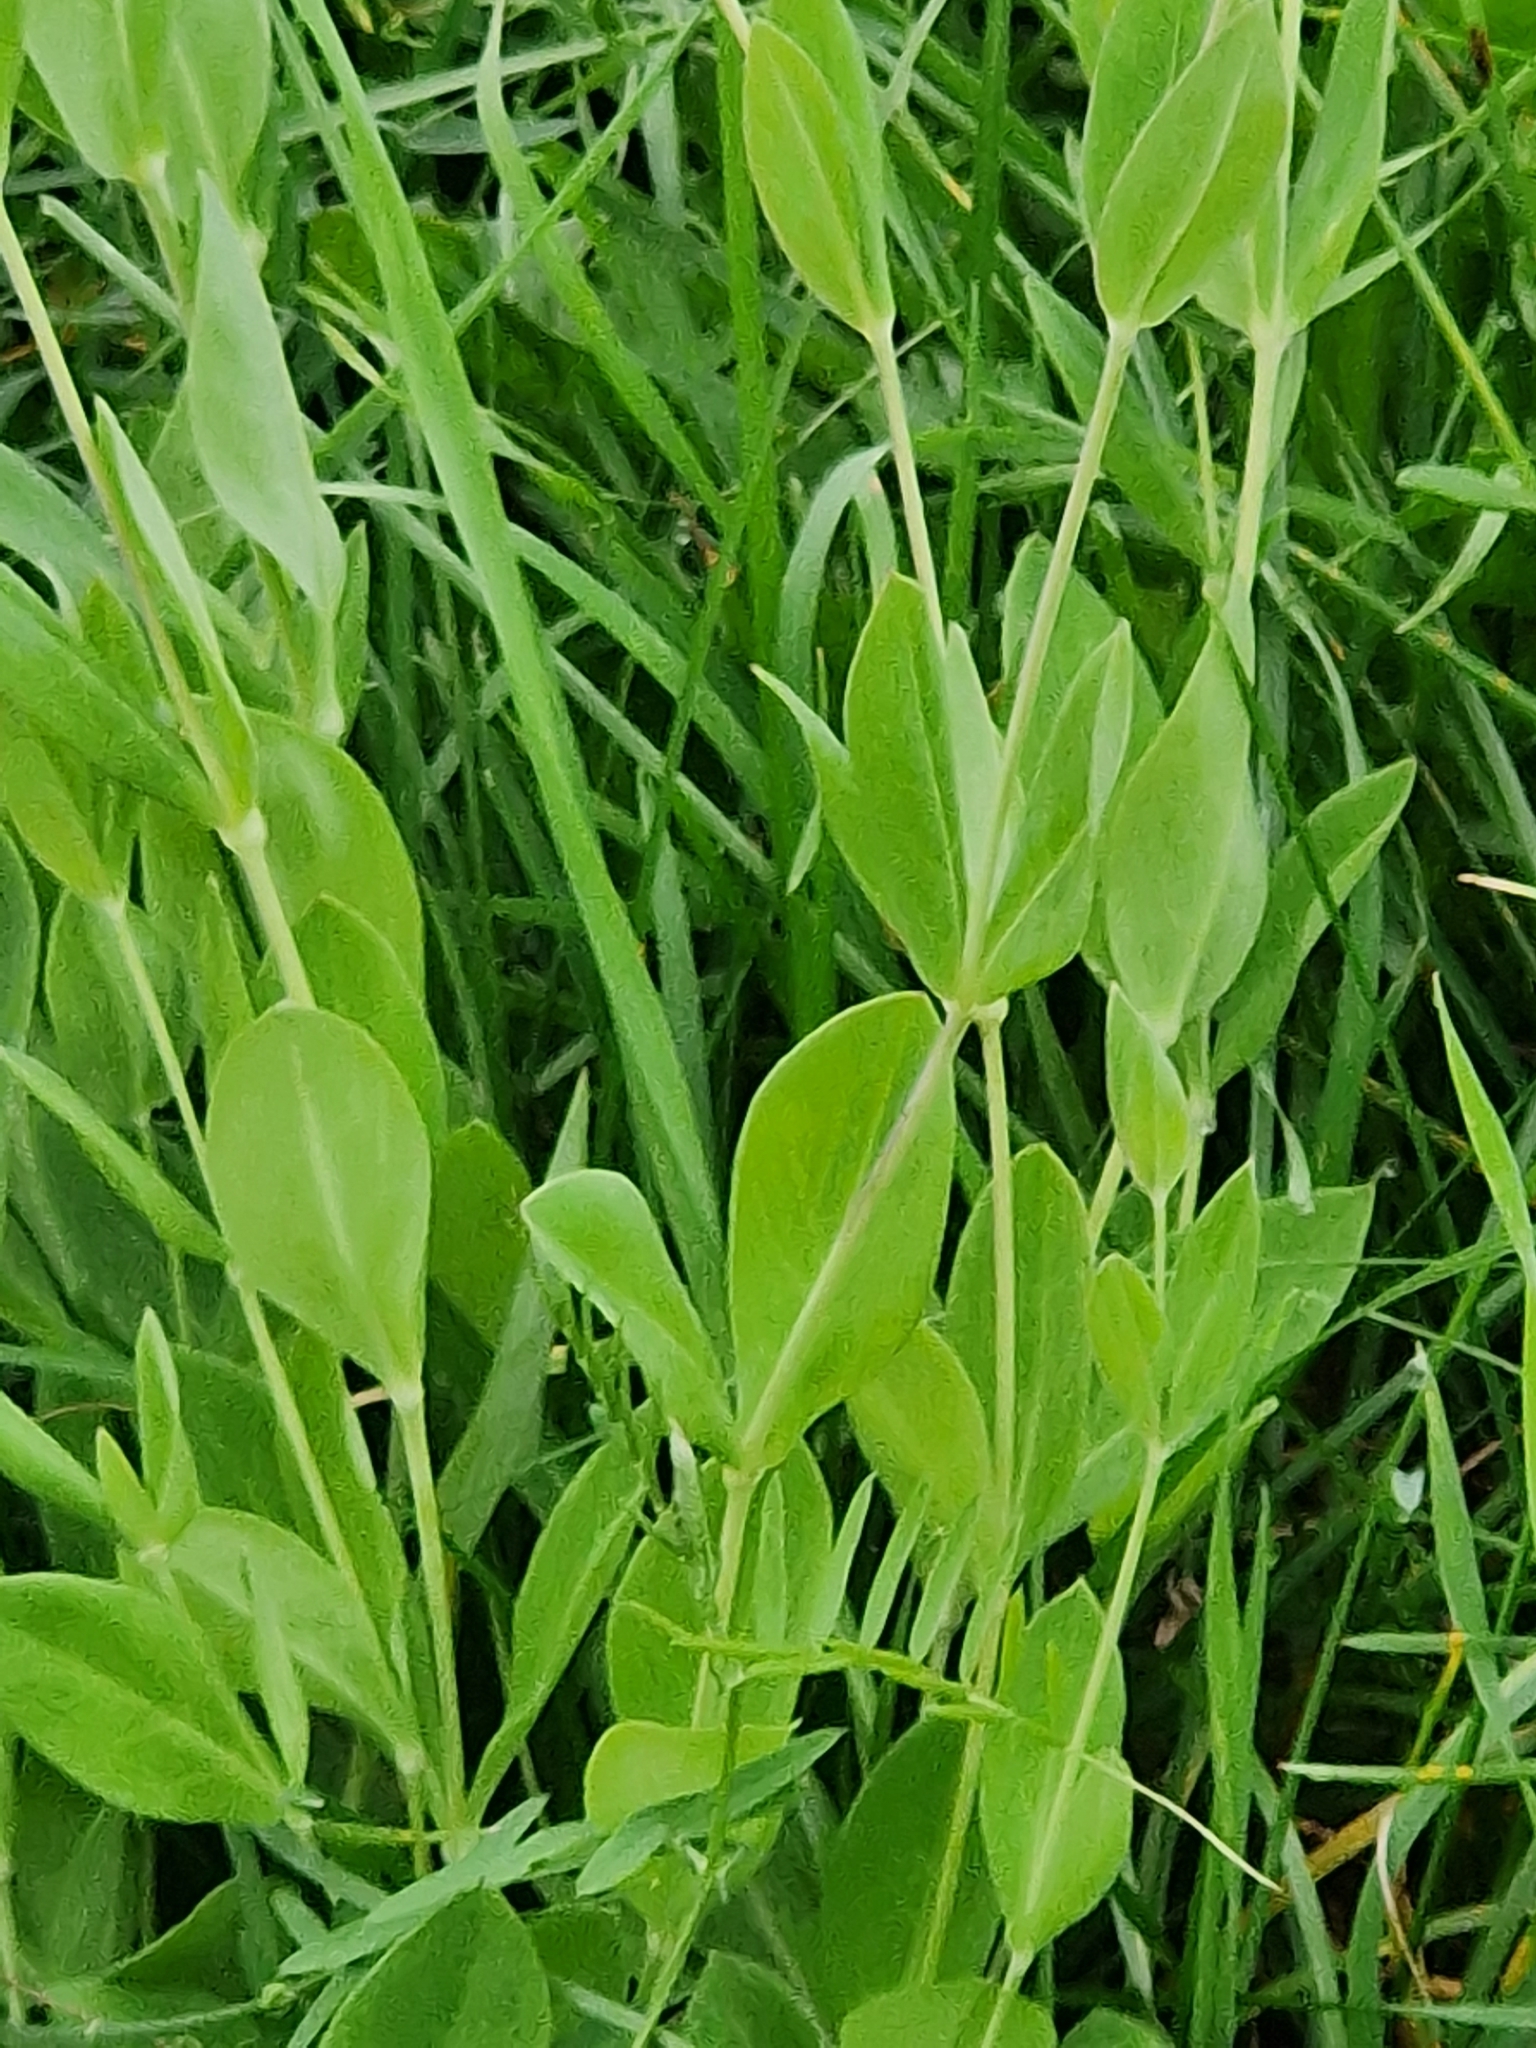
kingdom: Plantae
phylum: Tracheophyta
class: Magnoliopsida
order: Caryophyllales
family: Caryophyllaceae
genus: Silene
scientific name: Silene vulgaris
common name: Bladder campion
